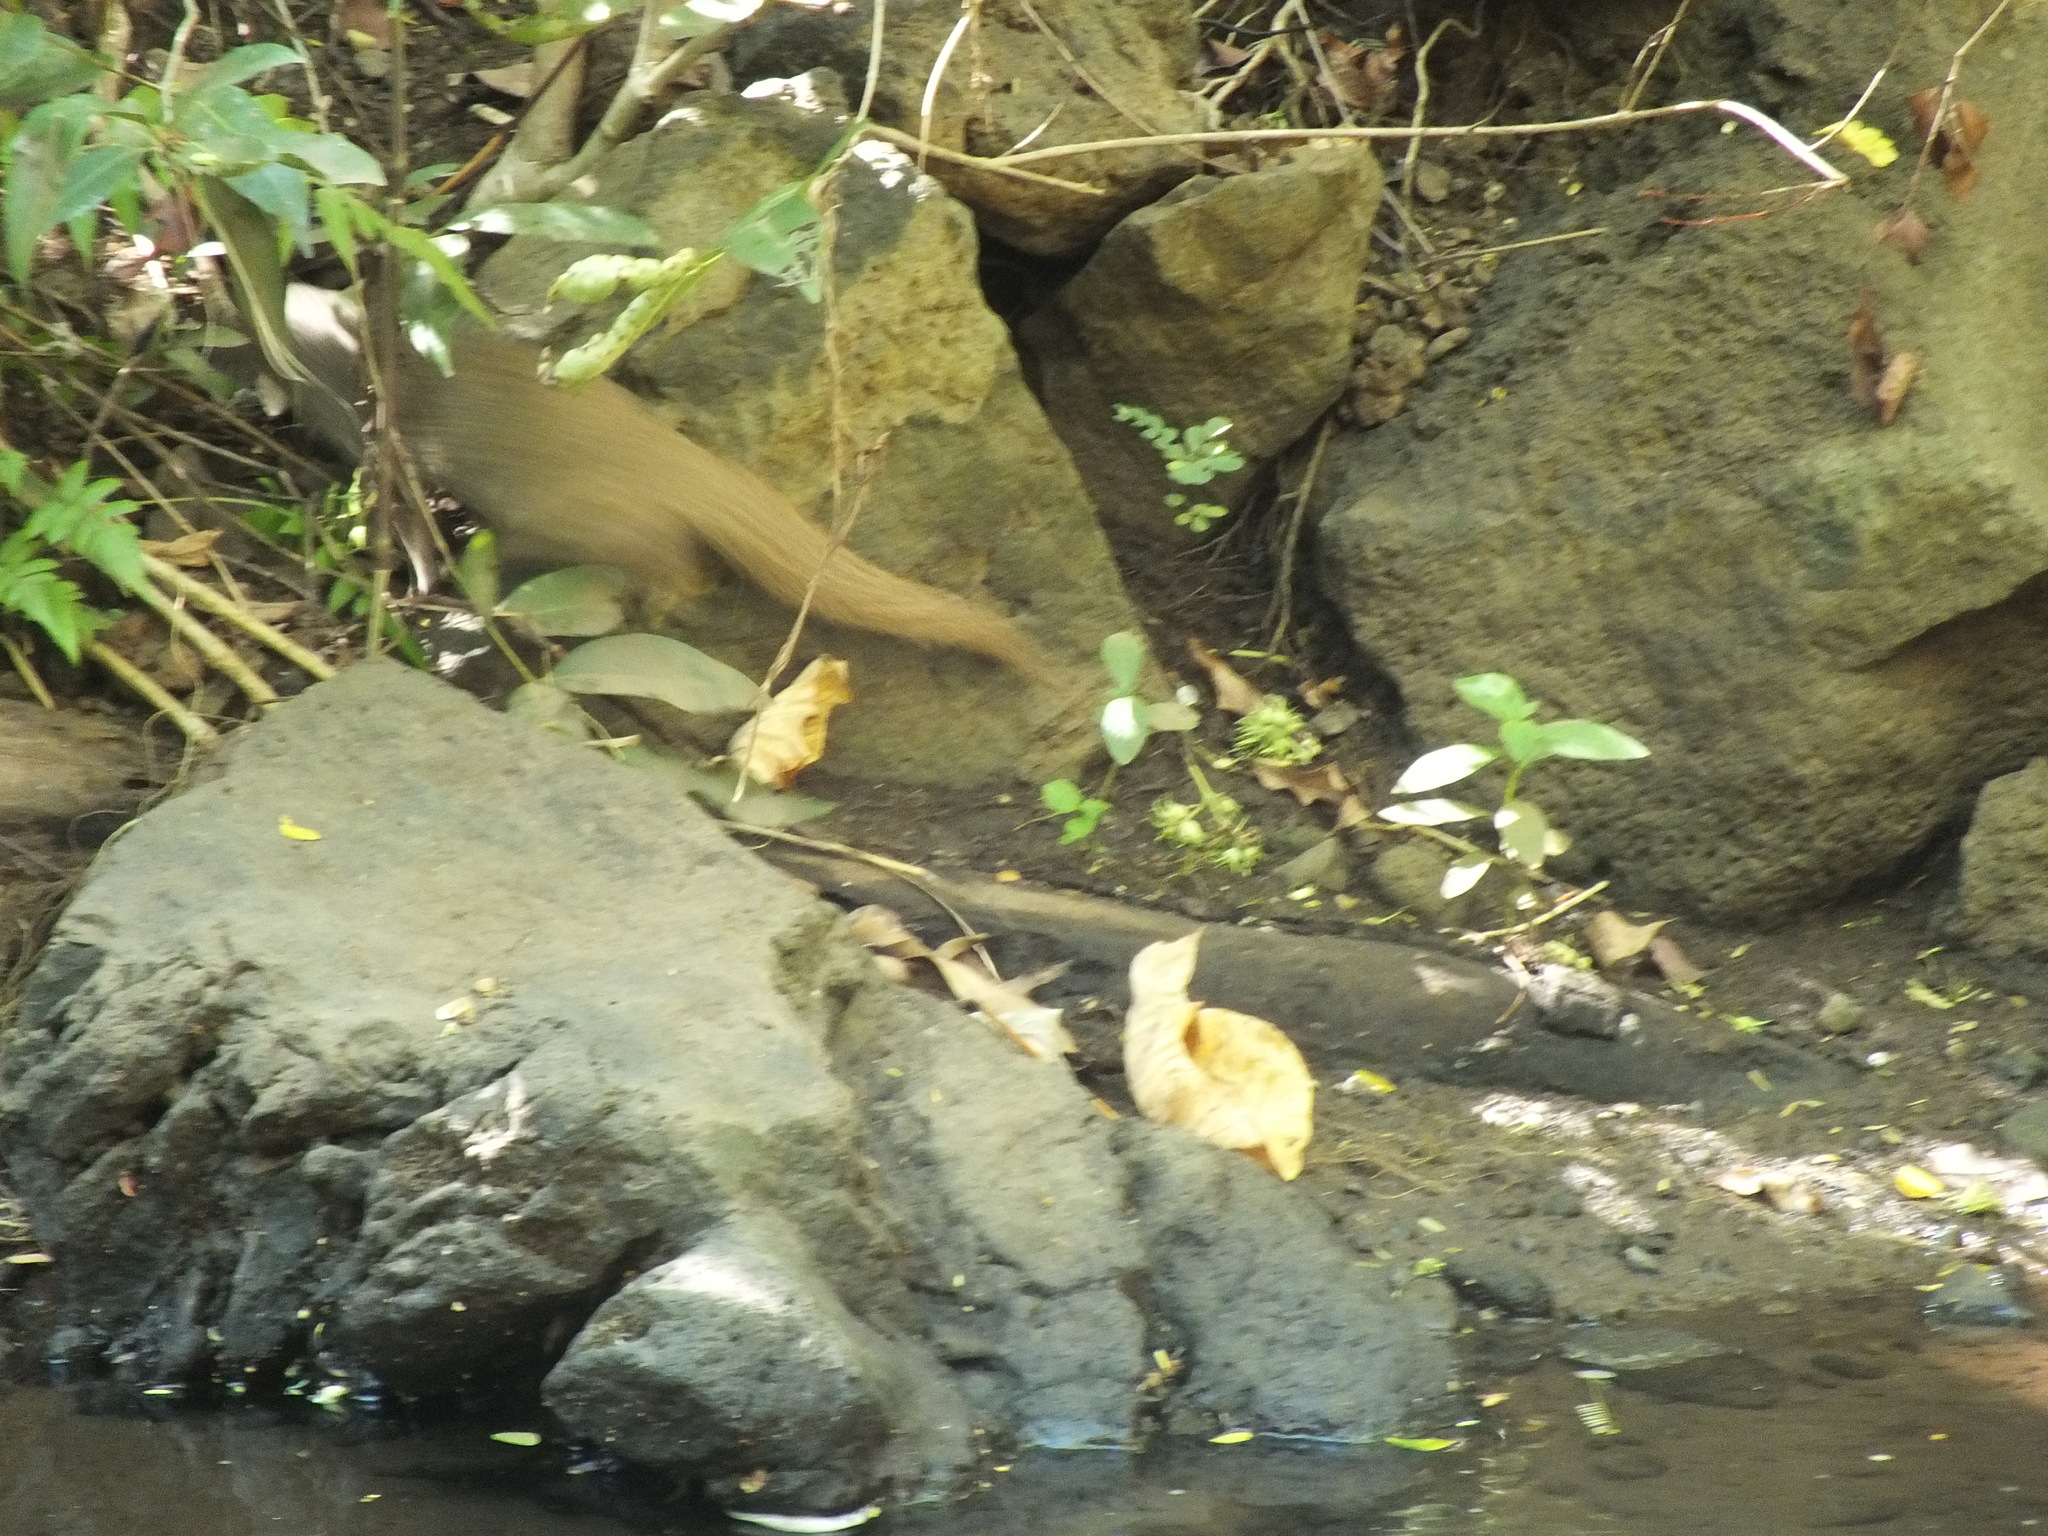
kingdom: Animalia
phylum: Chordata
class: Mammalia
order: Carnivora
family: Herpestidae
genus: Herpestes
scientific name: Herpestes javanicus
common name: Small asian mongoose
